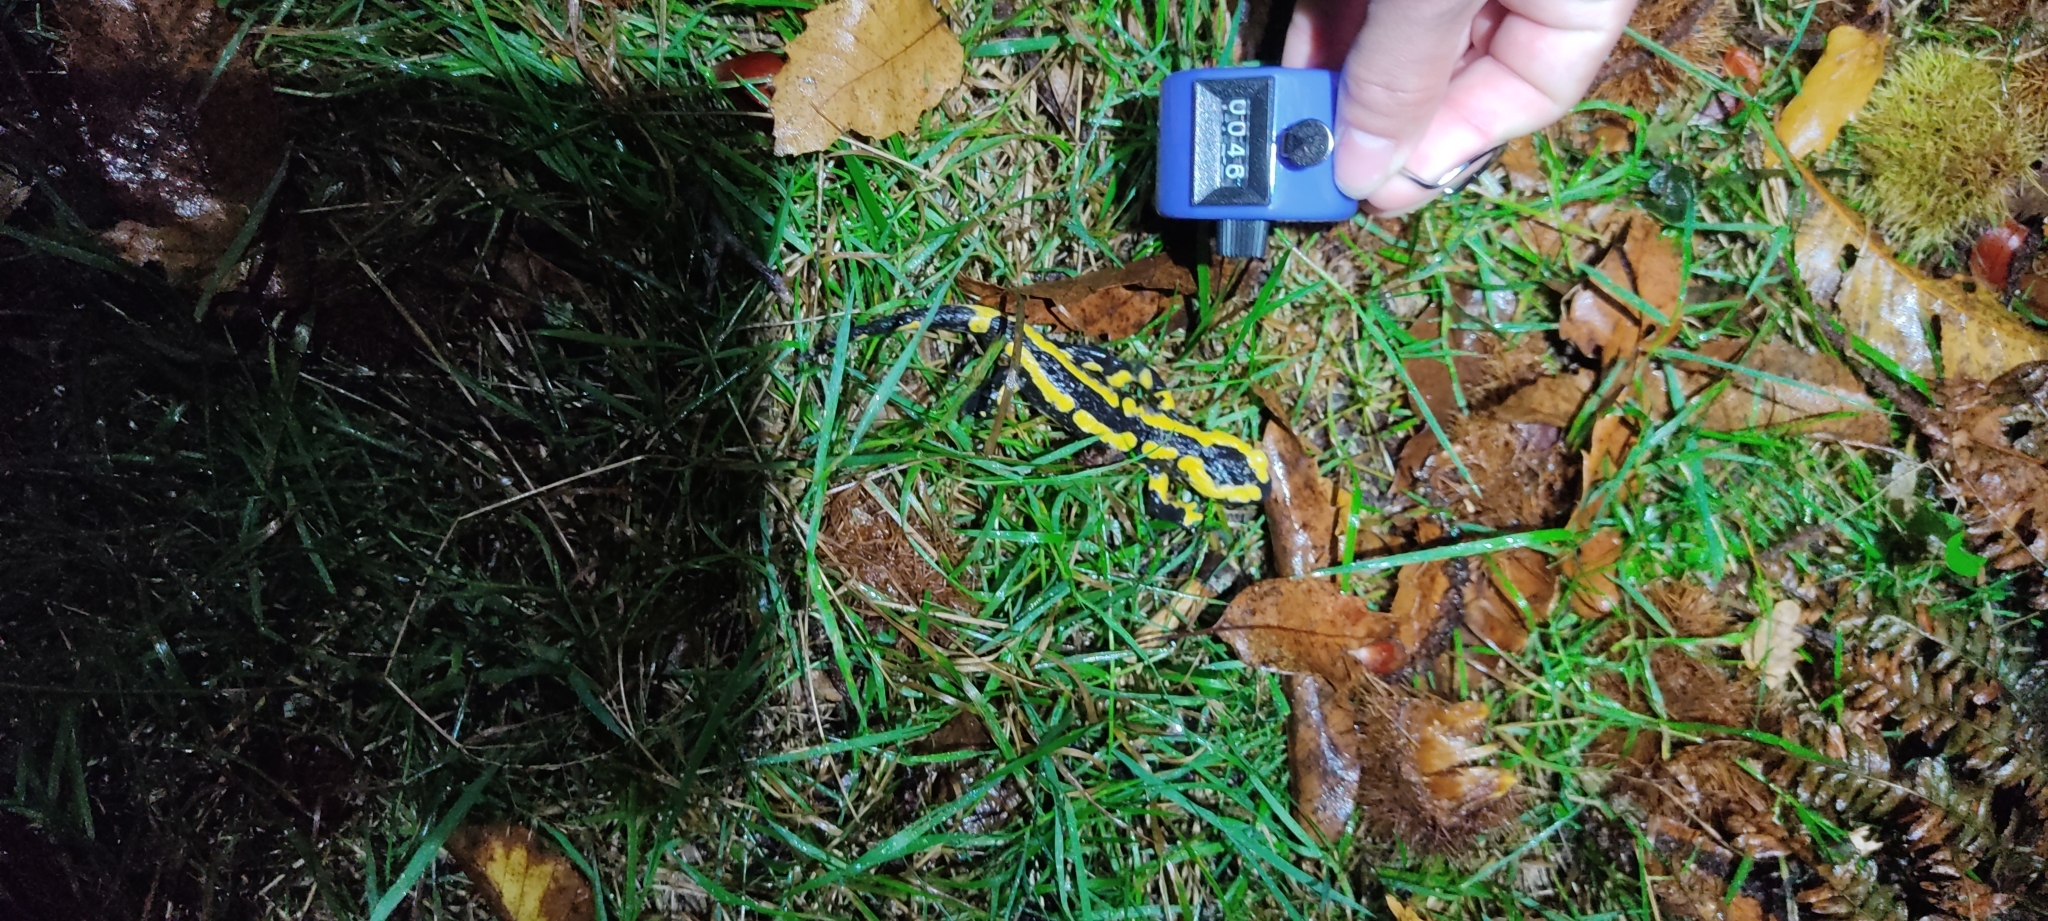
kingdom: Animalia
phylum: Chordata
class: Amphibia
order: Caudata
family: Salamandridae
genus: Salamandra
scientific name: Salamandra salamandra
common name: Fire salamander
